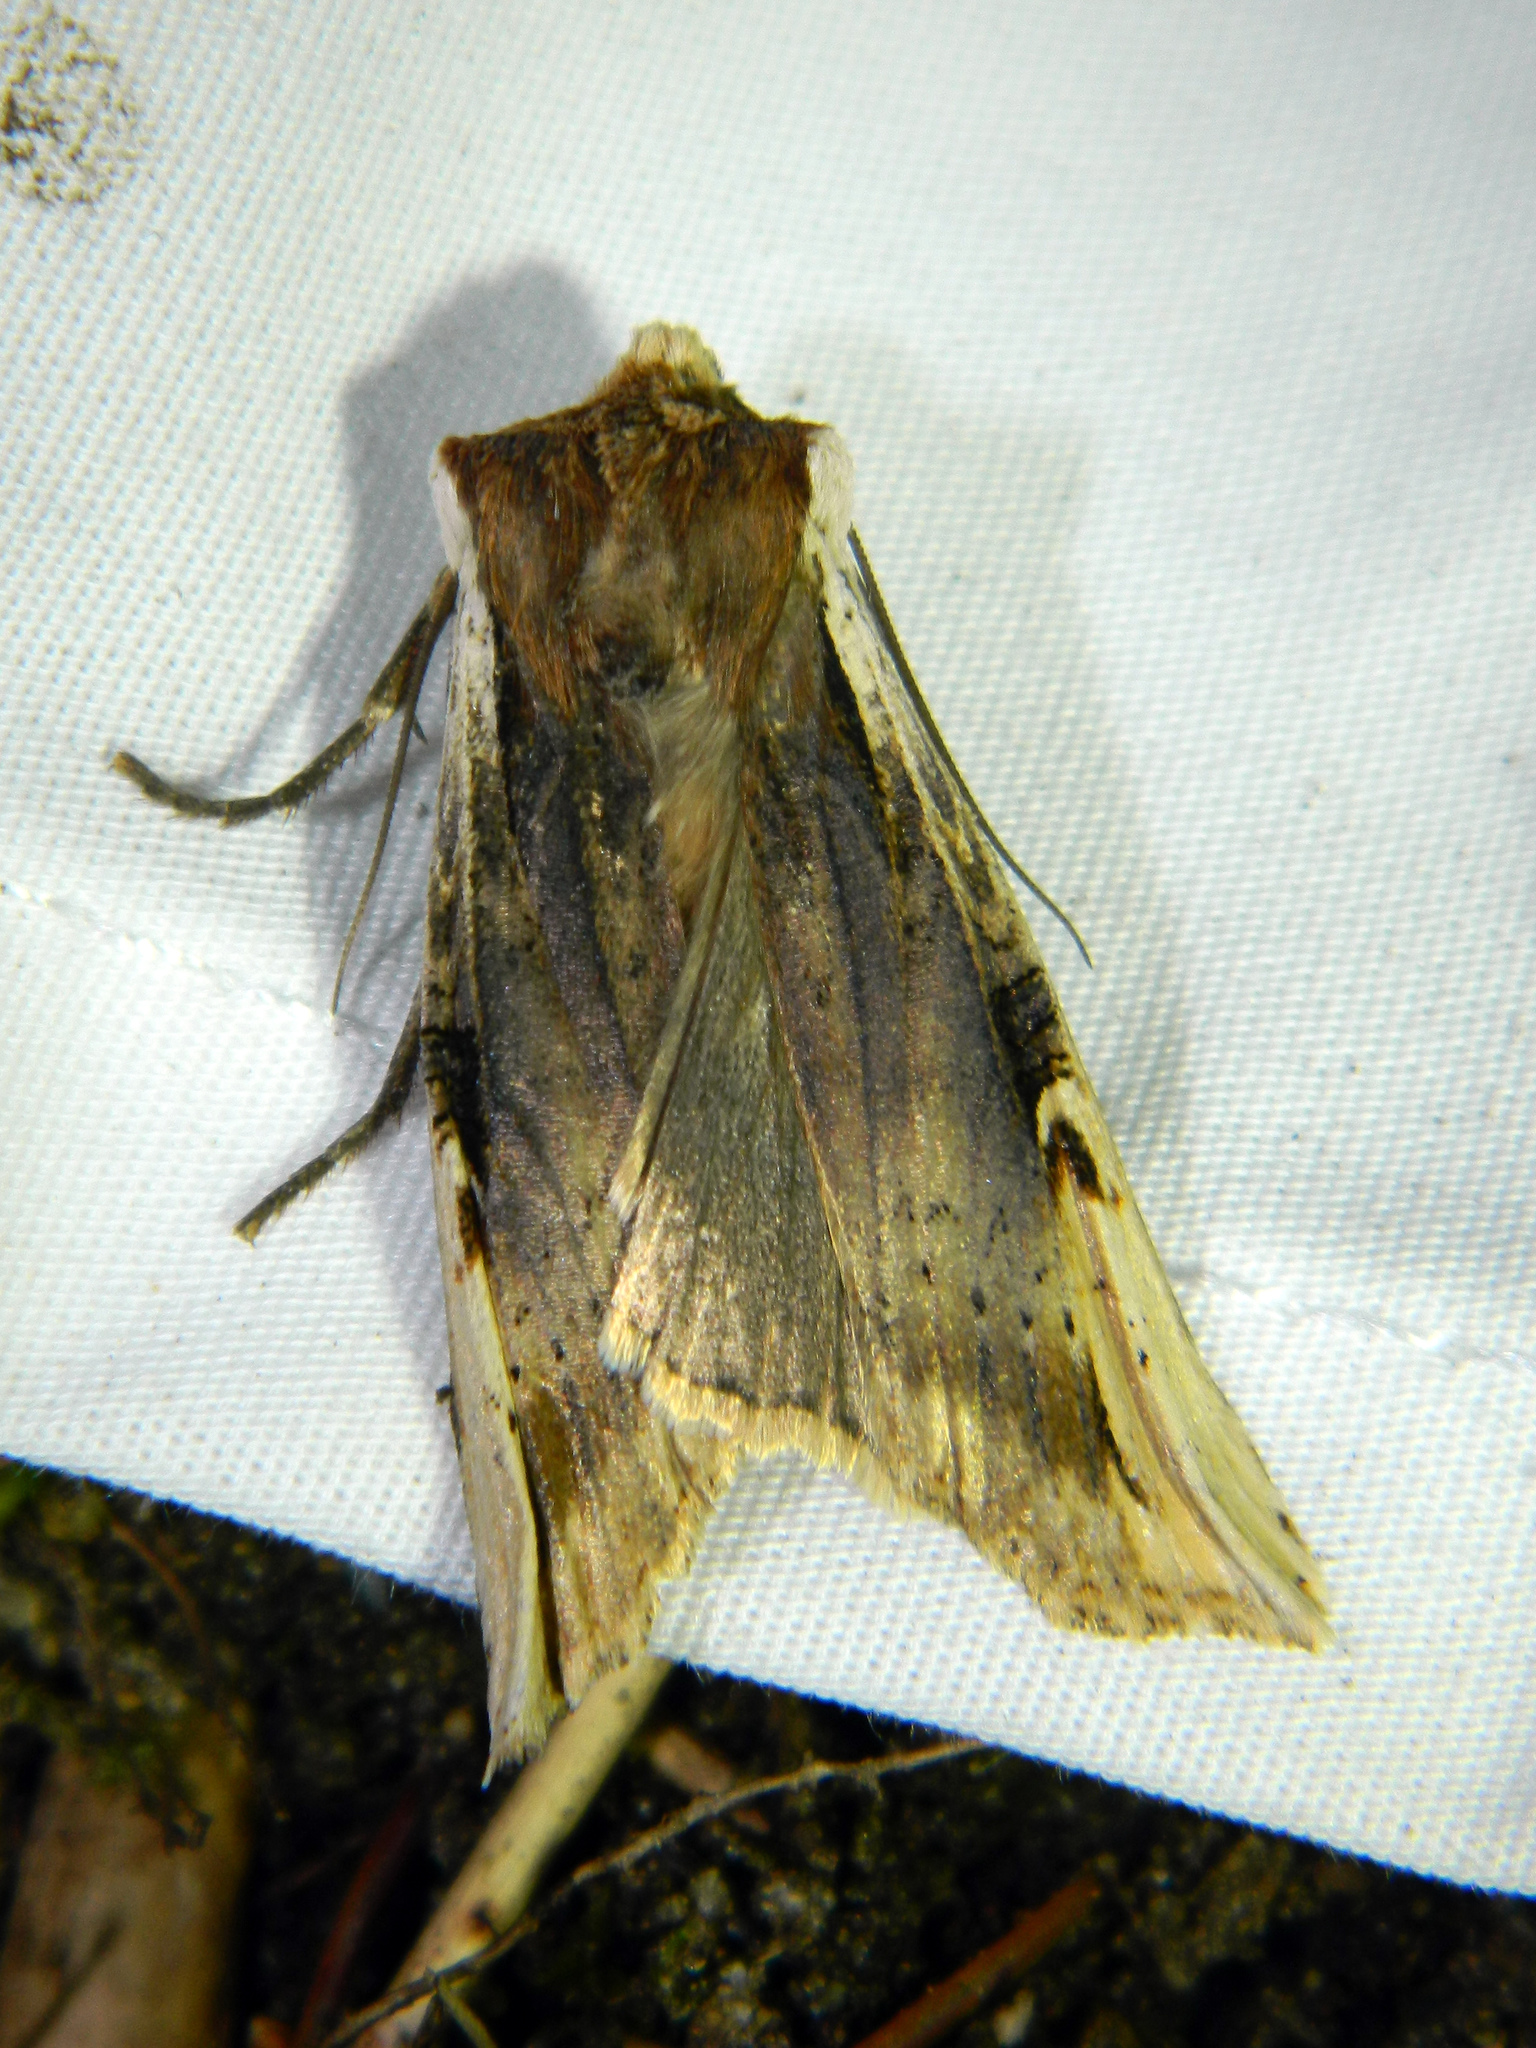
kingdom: Animalia
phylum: Arthropoda
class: Insecta
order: Lepidoptera
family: Noctuidae
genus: Xylena
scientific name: Xylena curvimacula
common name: Dot-and-dash swordgrass moth
